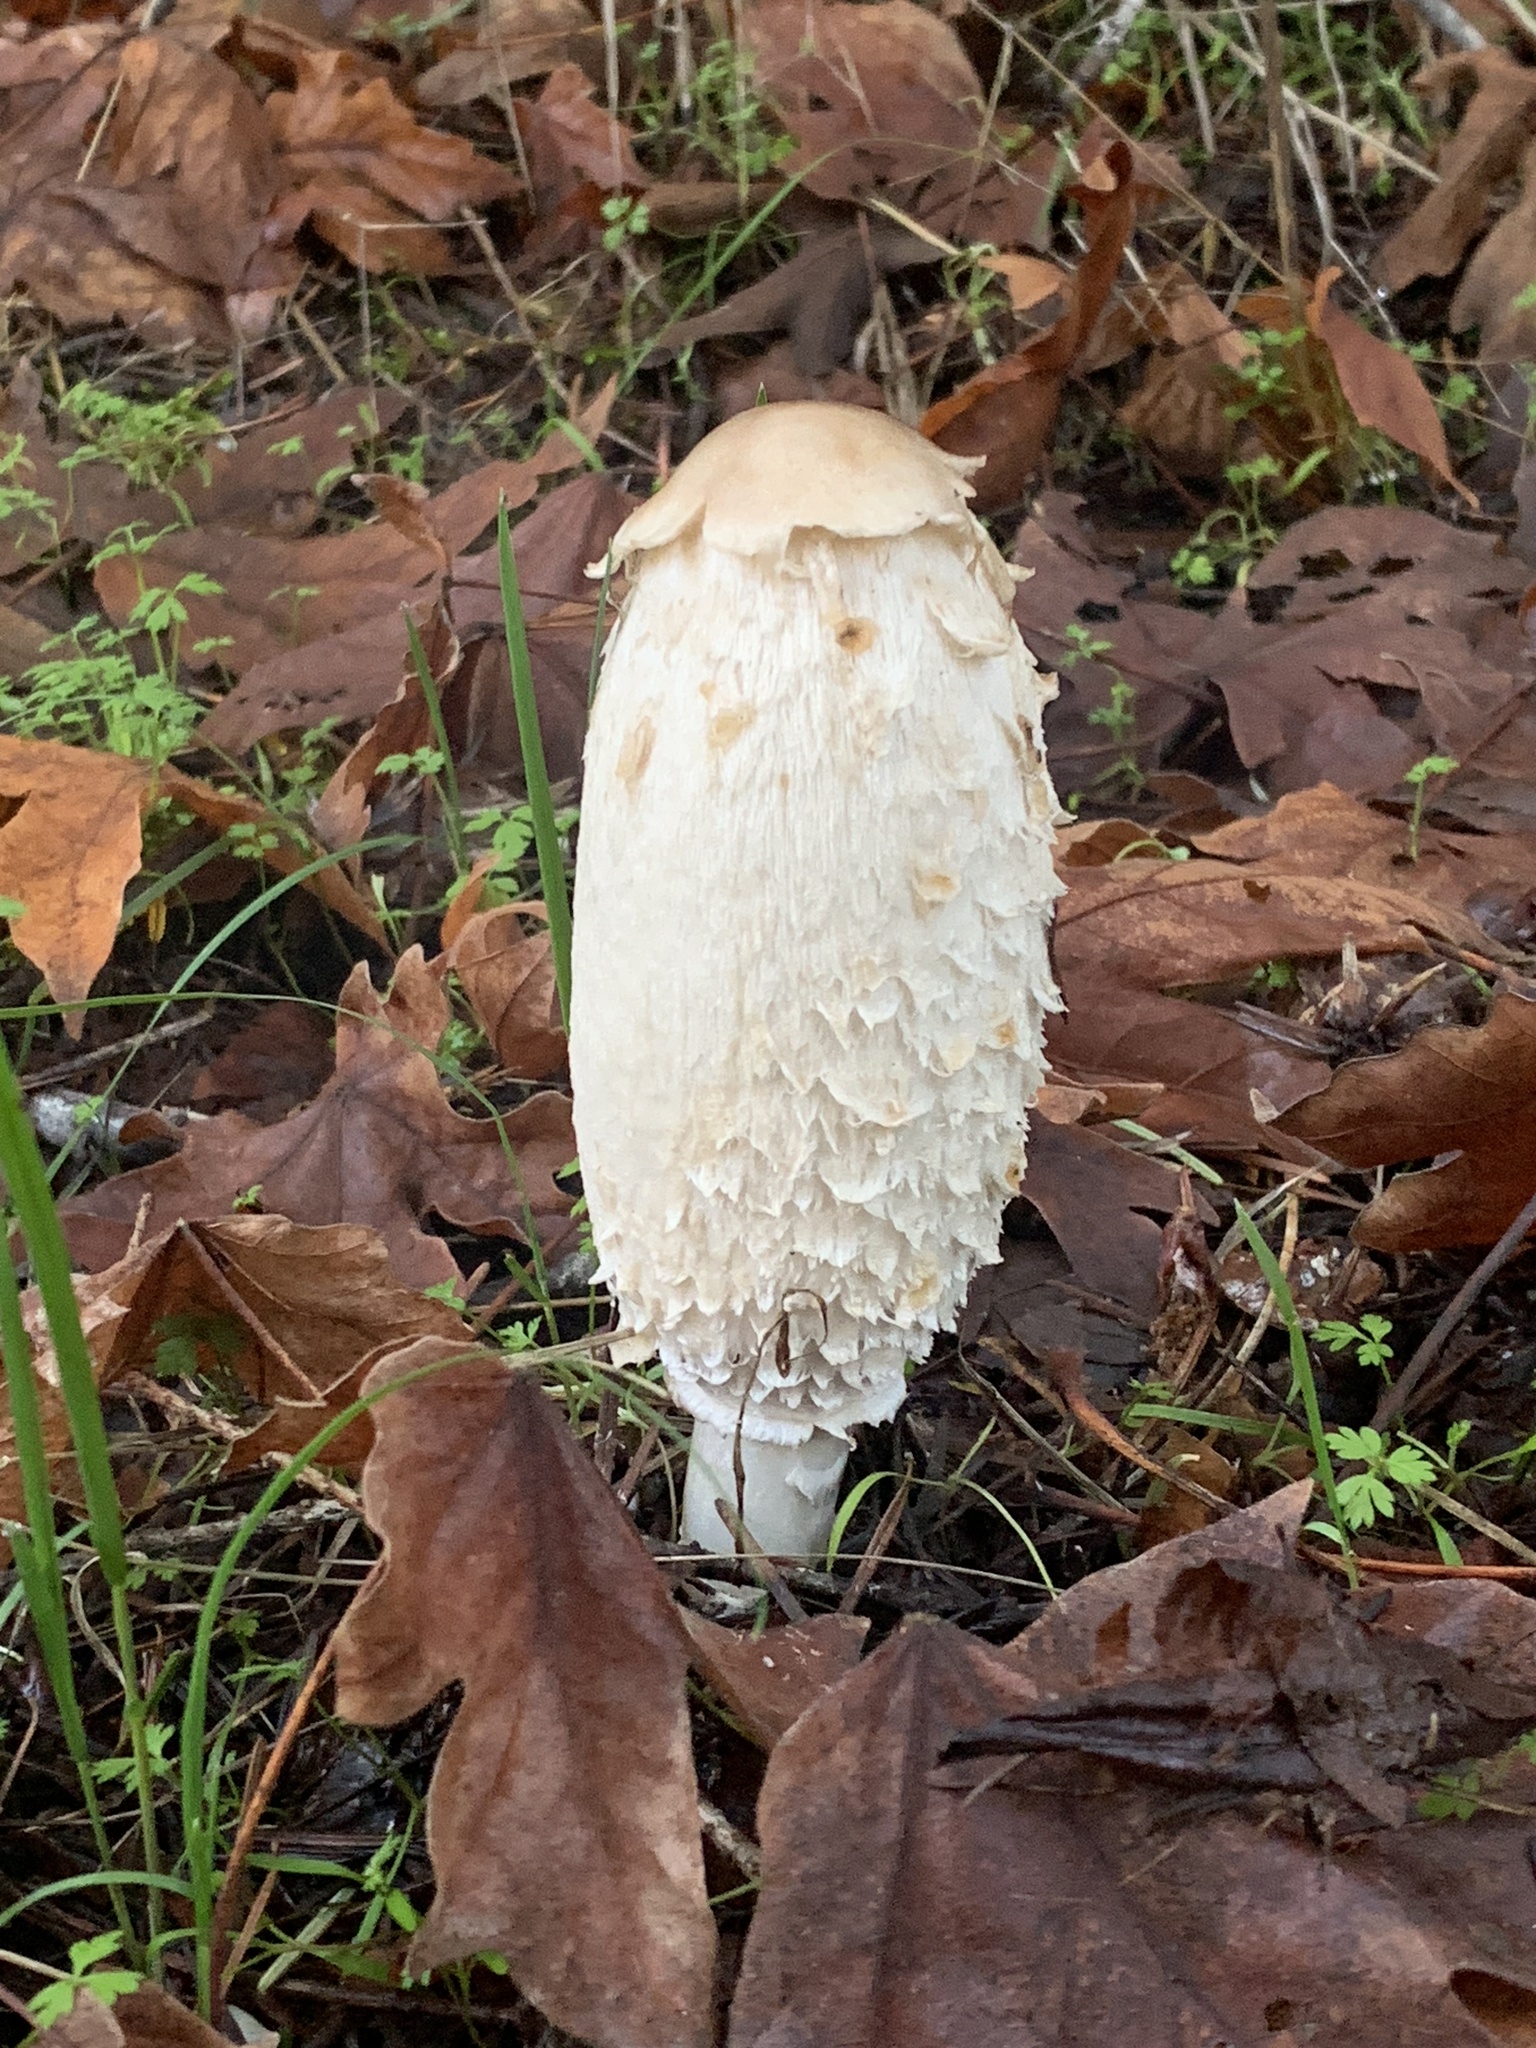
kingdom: Fungi
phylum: Basidiomycota
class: Agaricomycetes
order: Agaricales
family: Agaricaceae
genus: Coprinus
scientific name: Coprinus comatus
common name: Lawyer's wig
